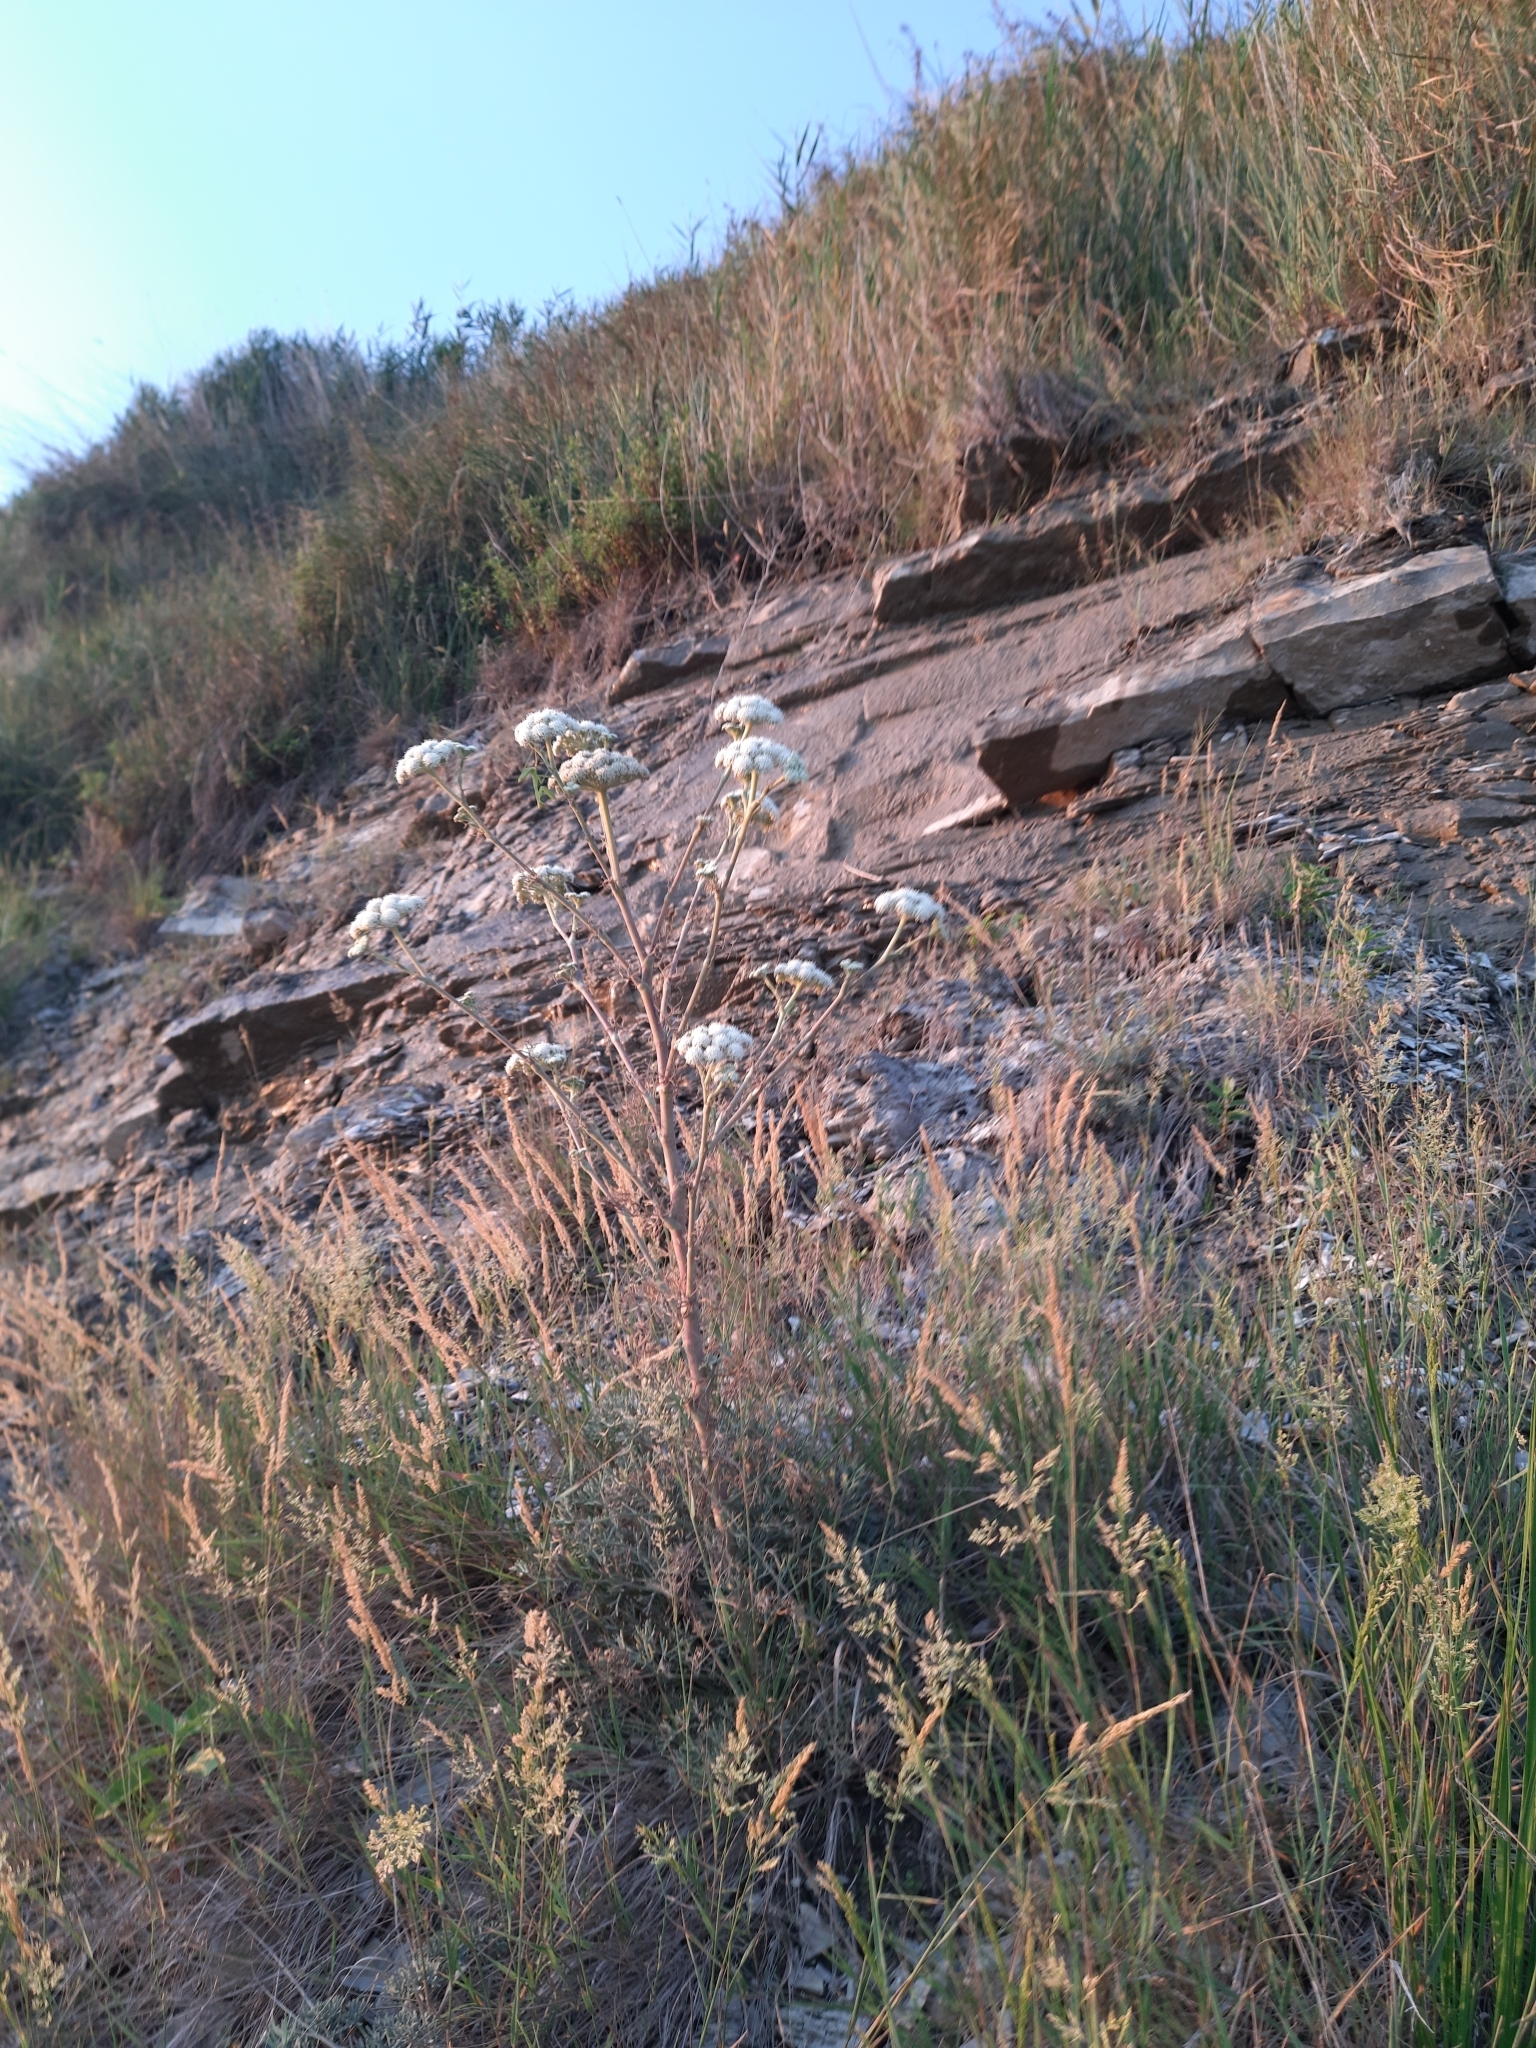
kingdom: Plantae
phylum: Tracheophyta
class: Magnoliopsida
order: Apiales
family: Apiaceae
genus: Seseli
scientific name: Seseli ponticum
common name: Pontic seseli
